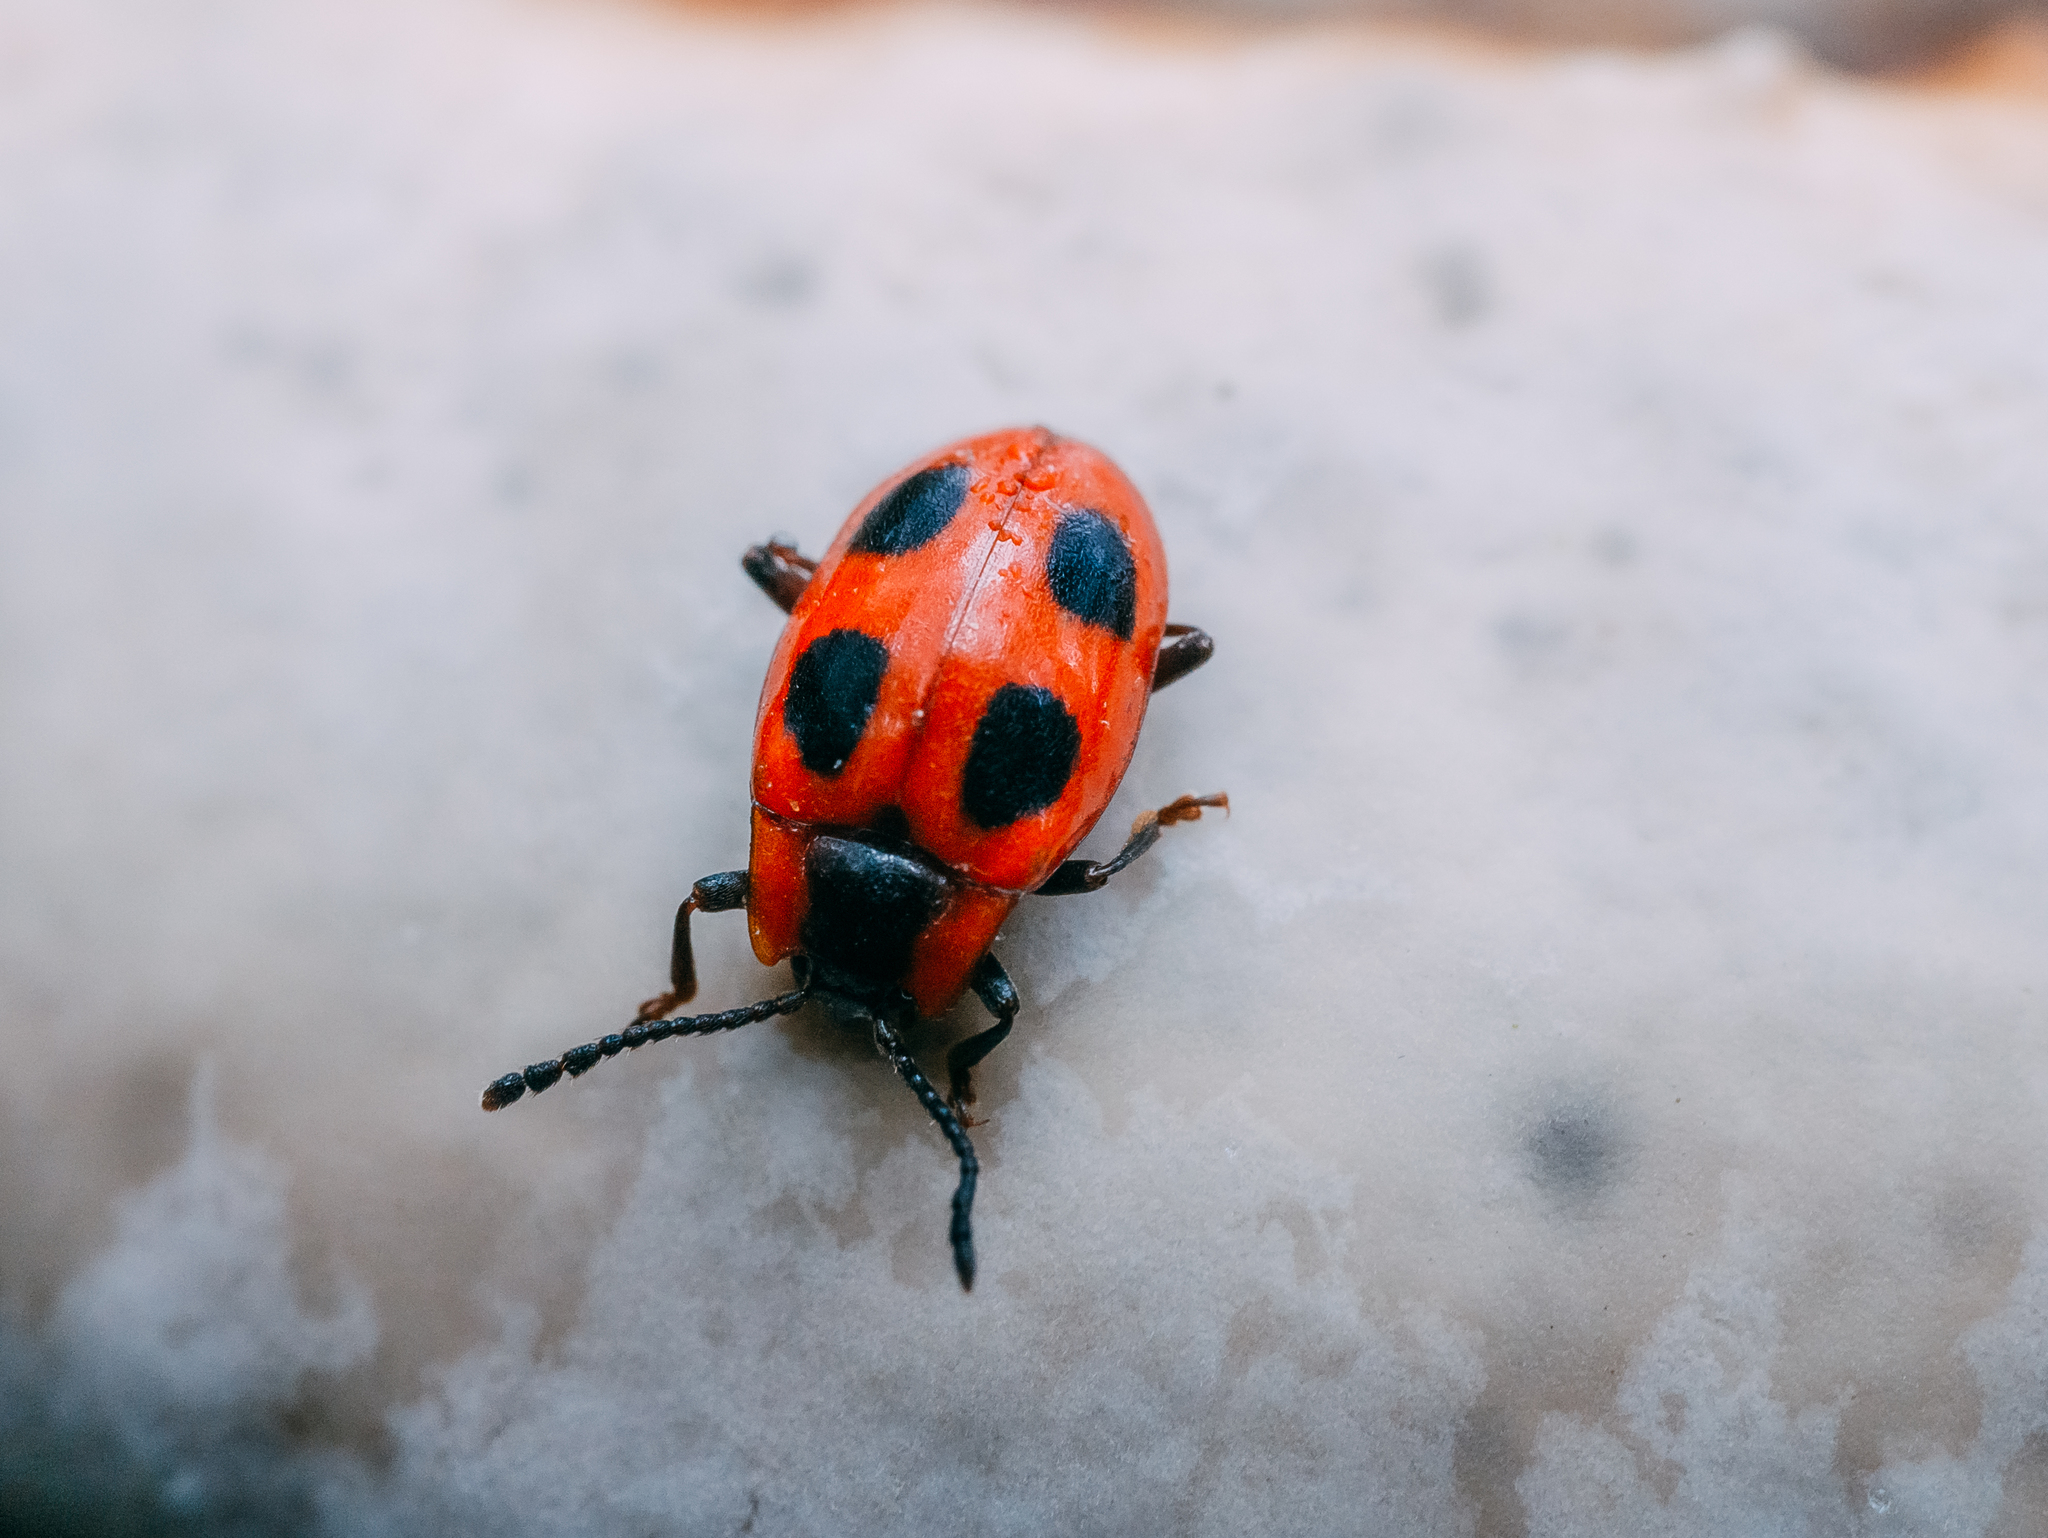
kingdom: Animalia
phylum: Arthropoda
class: Insecta
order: Coleoptera
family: Endomychidae
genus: Endomychus
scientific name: Endomychus coccineus
